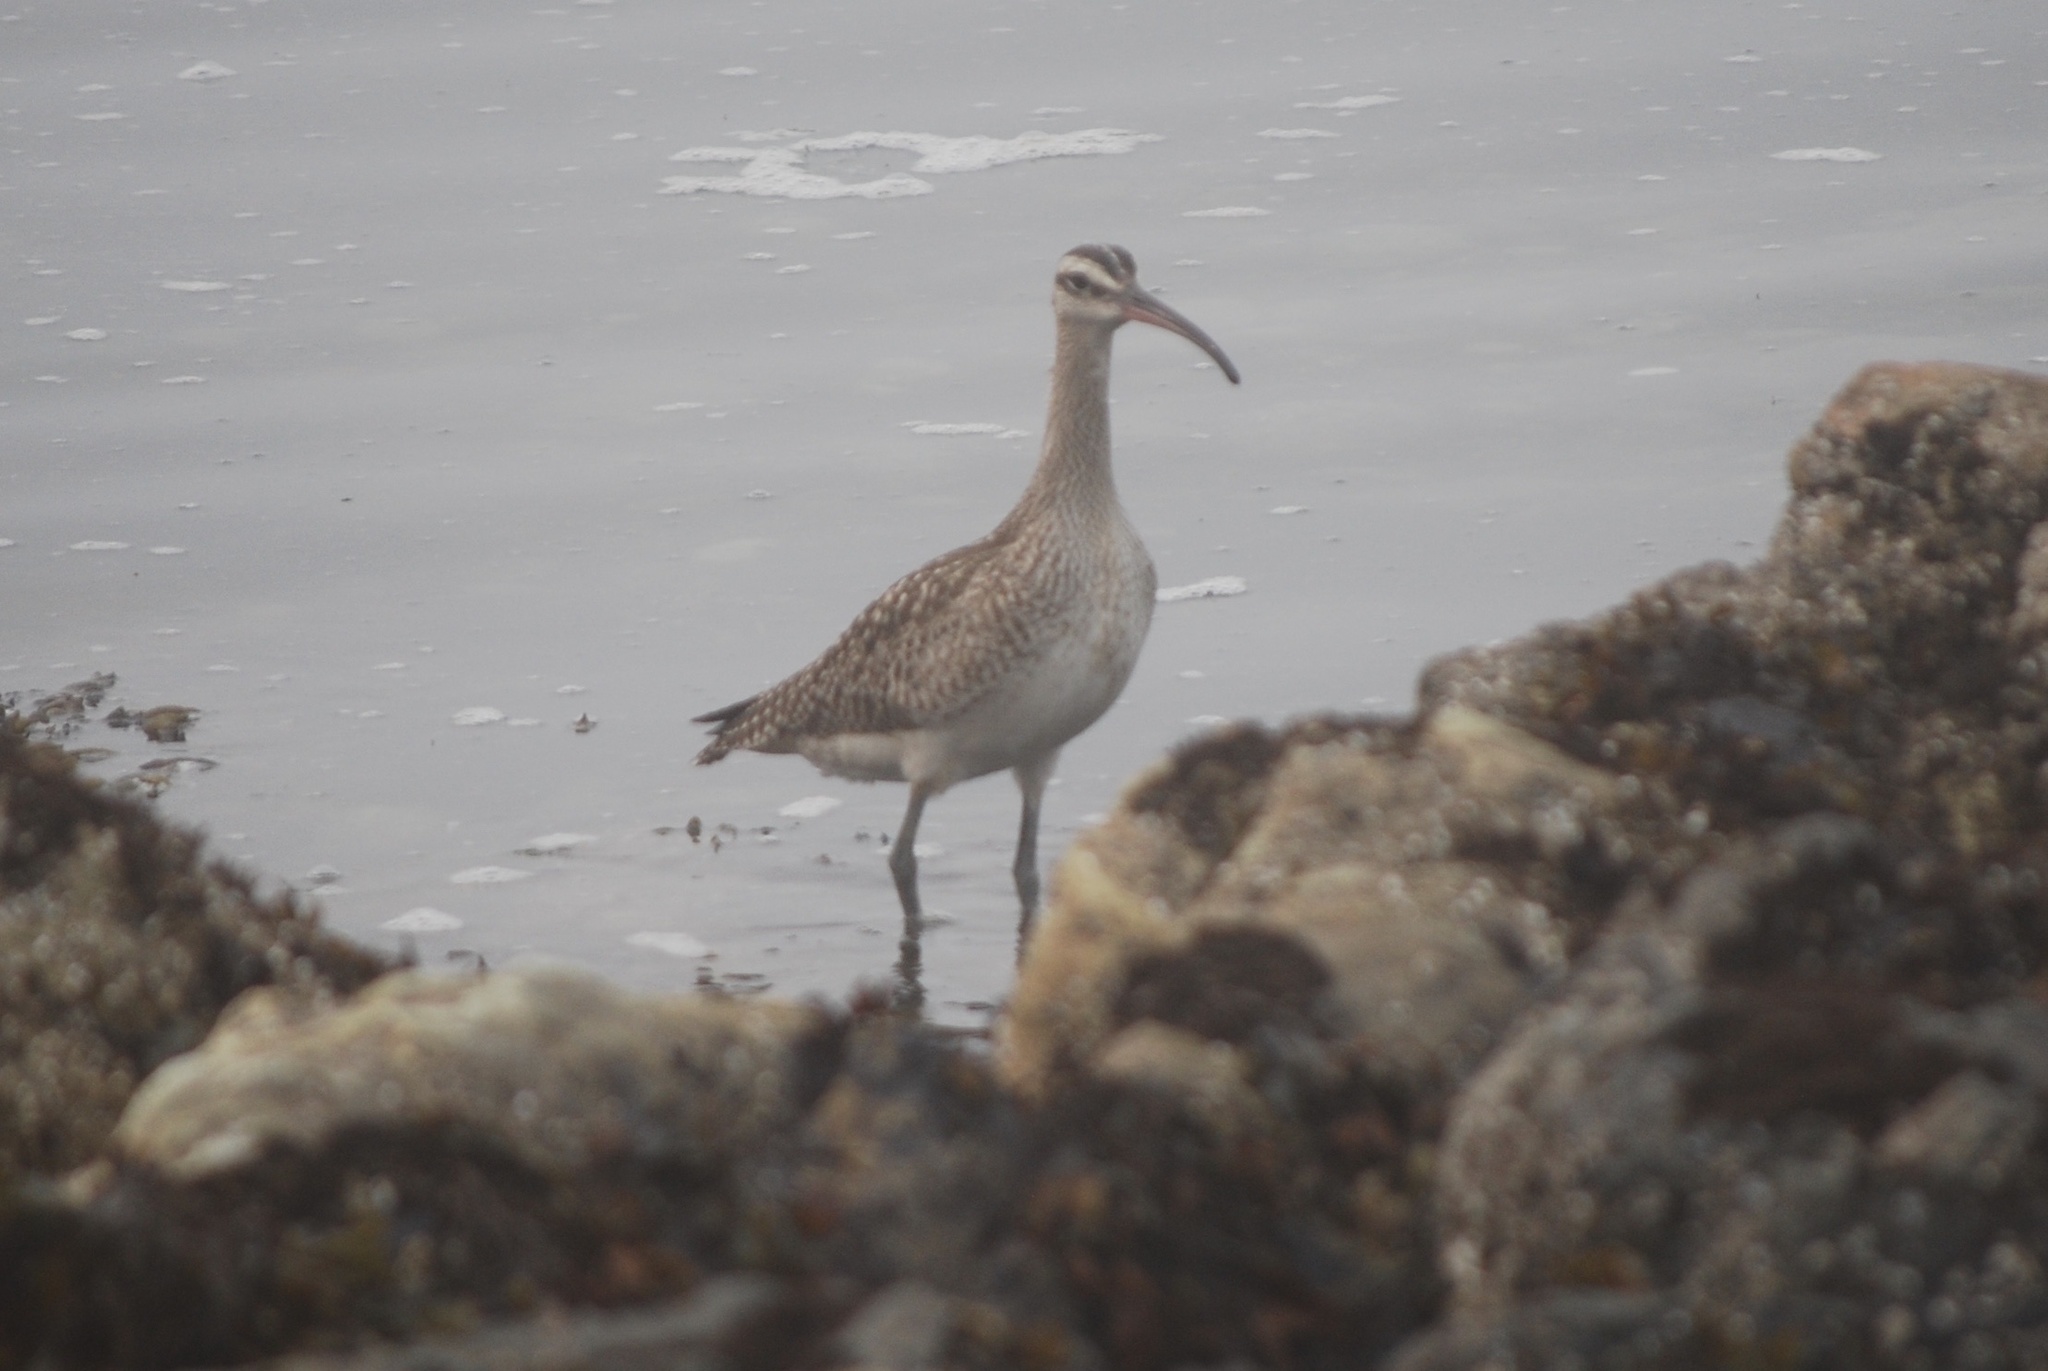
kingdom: Animalia
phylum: Chordata
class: Aves
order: Charadriiformes
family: Scolopacidae
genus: Numenius
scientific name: Numenius phaeopus
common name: Whimbrel
